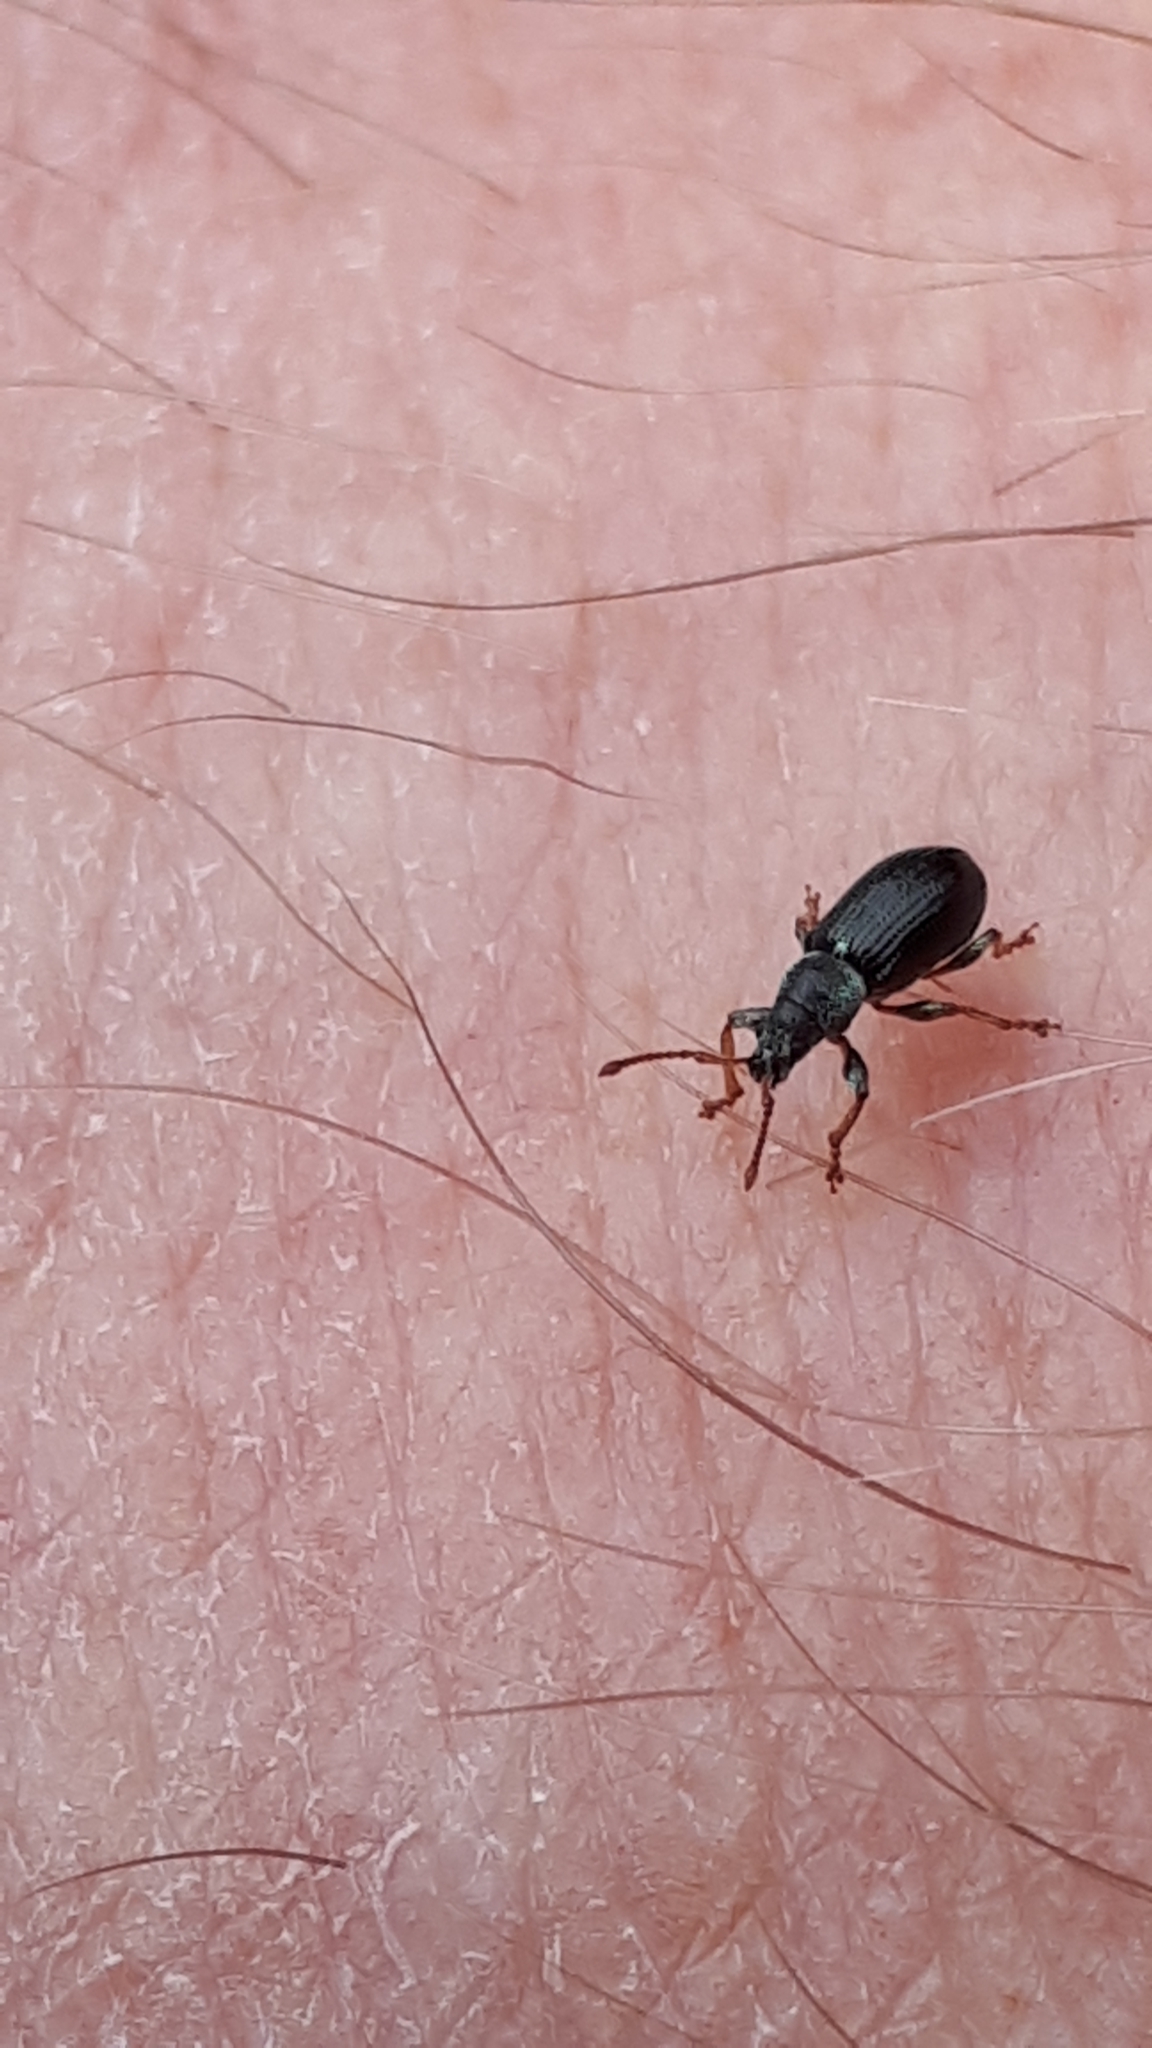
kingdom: Animalia
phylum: Arthropoda
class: Insecta
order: Coleoptera
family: Curculionidae
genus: Phyllobius
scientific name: Phyllobius viridicollis
